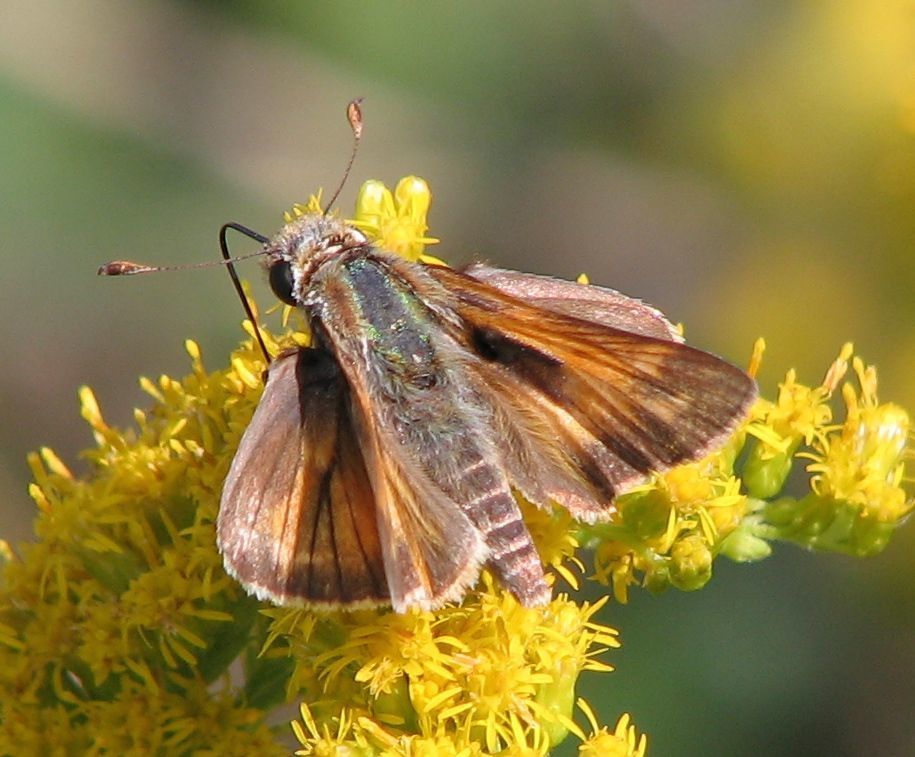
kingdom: Animalia
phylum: Arthropoda
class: Insecta
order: Lepidoptera
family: Hesperiidae
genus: Atalopedes
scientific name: Atalopedes
